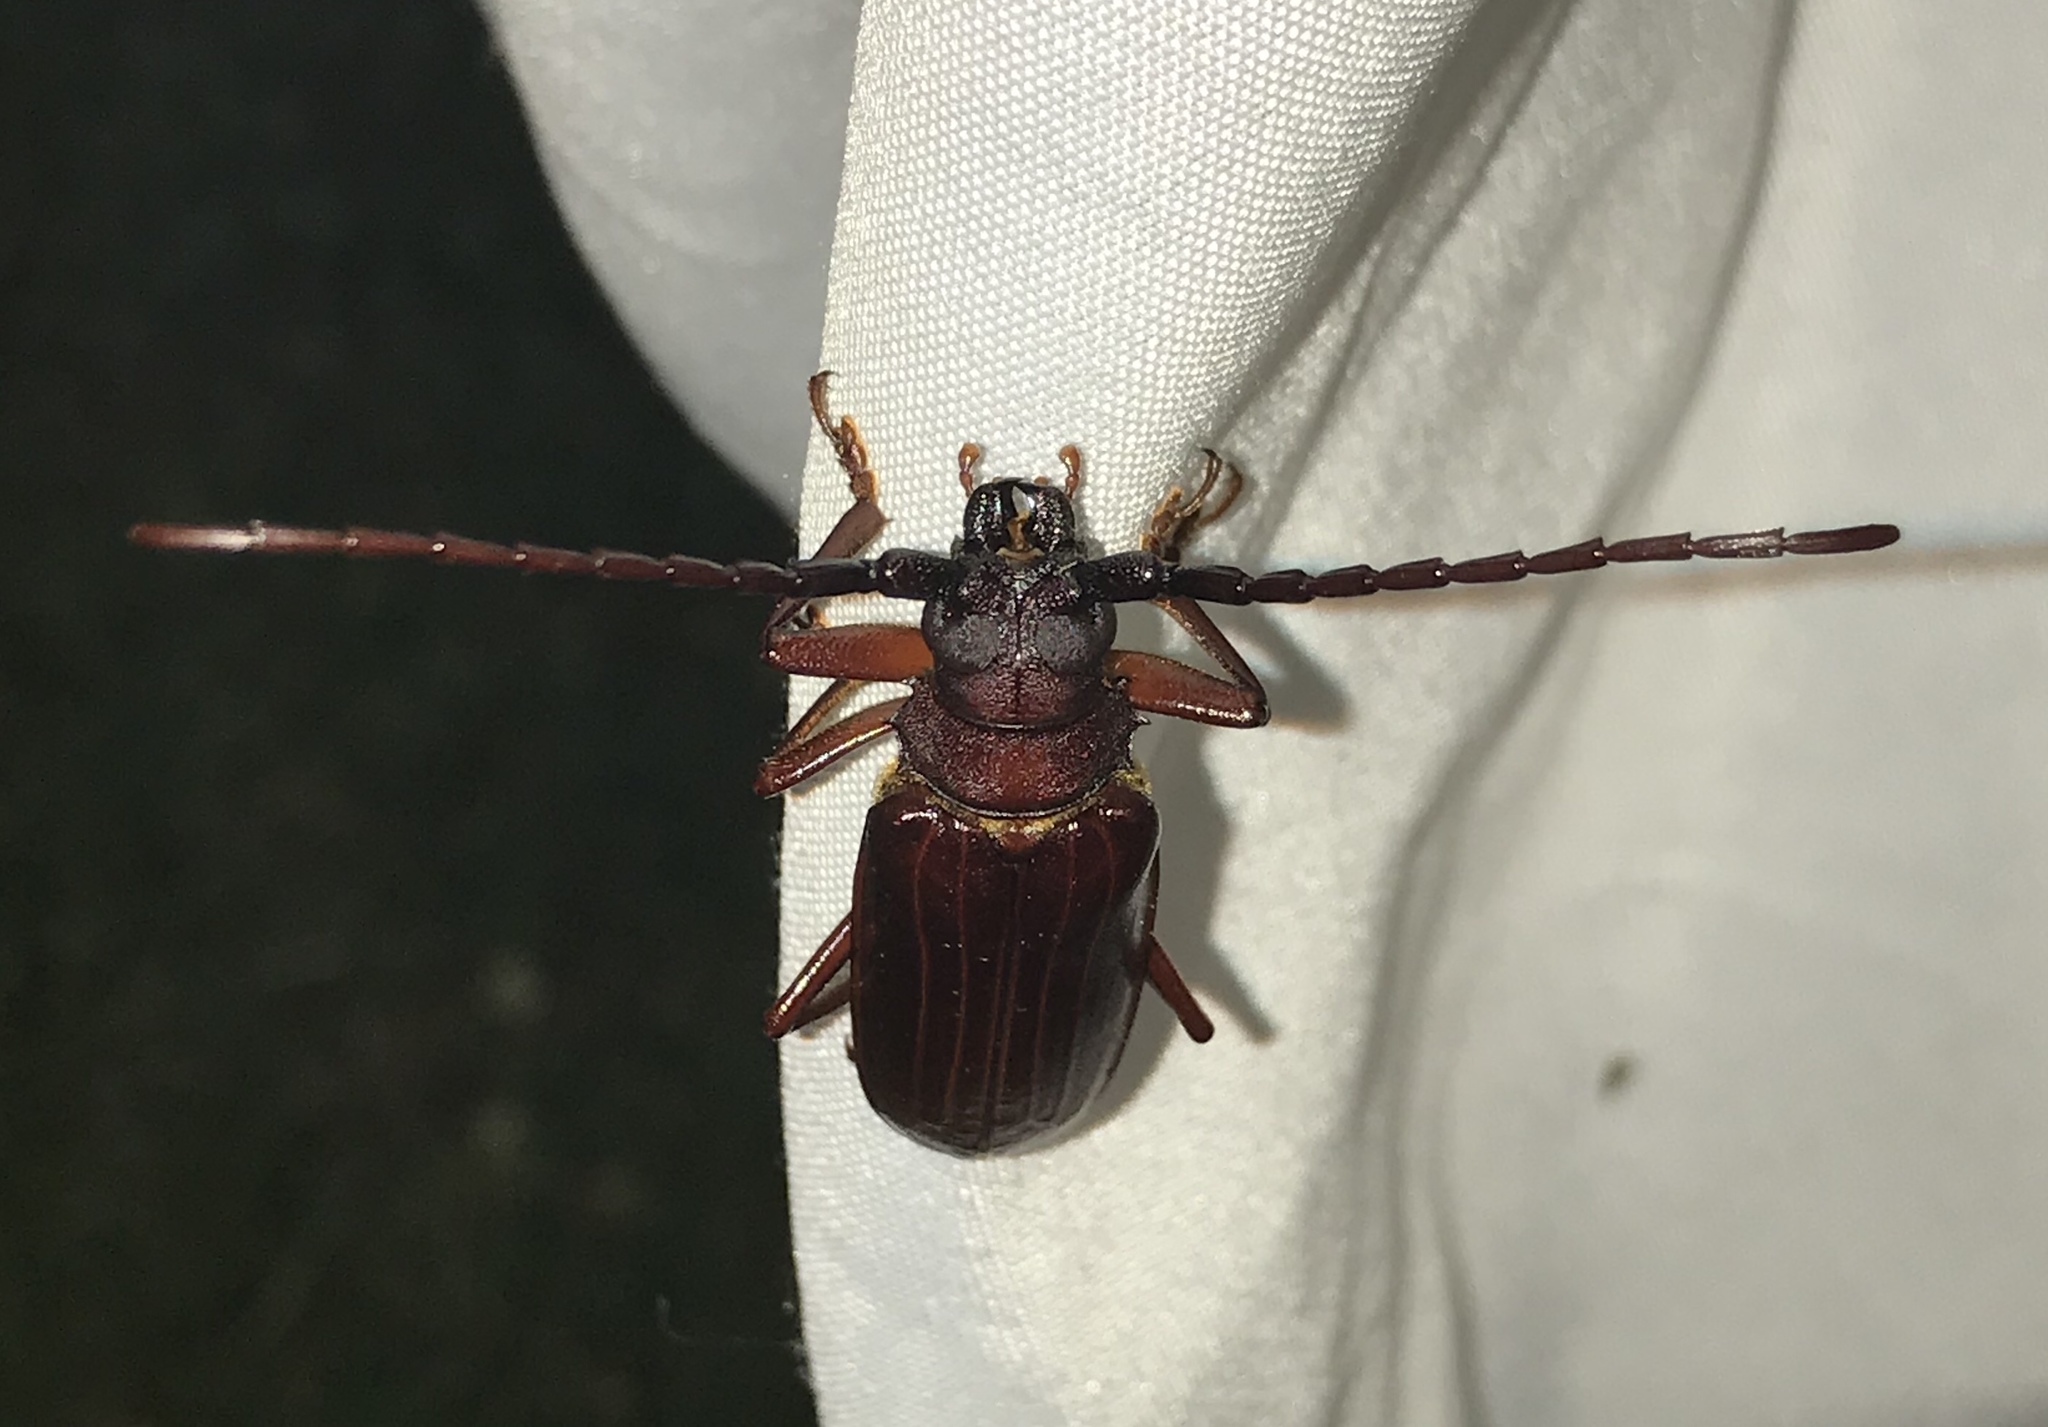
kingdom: Animalia
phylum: Arthropoda
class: Insecta
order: Coleoptera
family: Cerambycidae
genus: Orthosoma
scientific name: Orthosoma brunneum
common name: Brown prionid beetle
